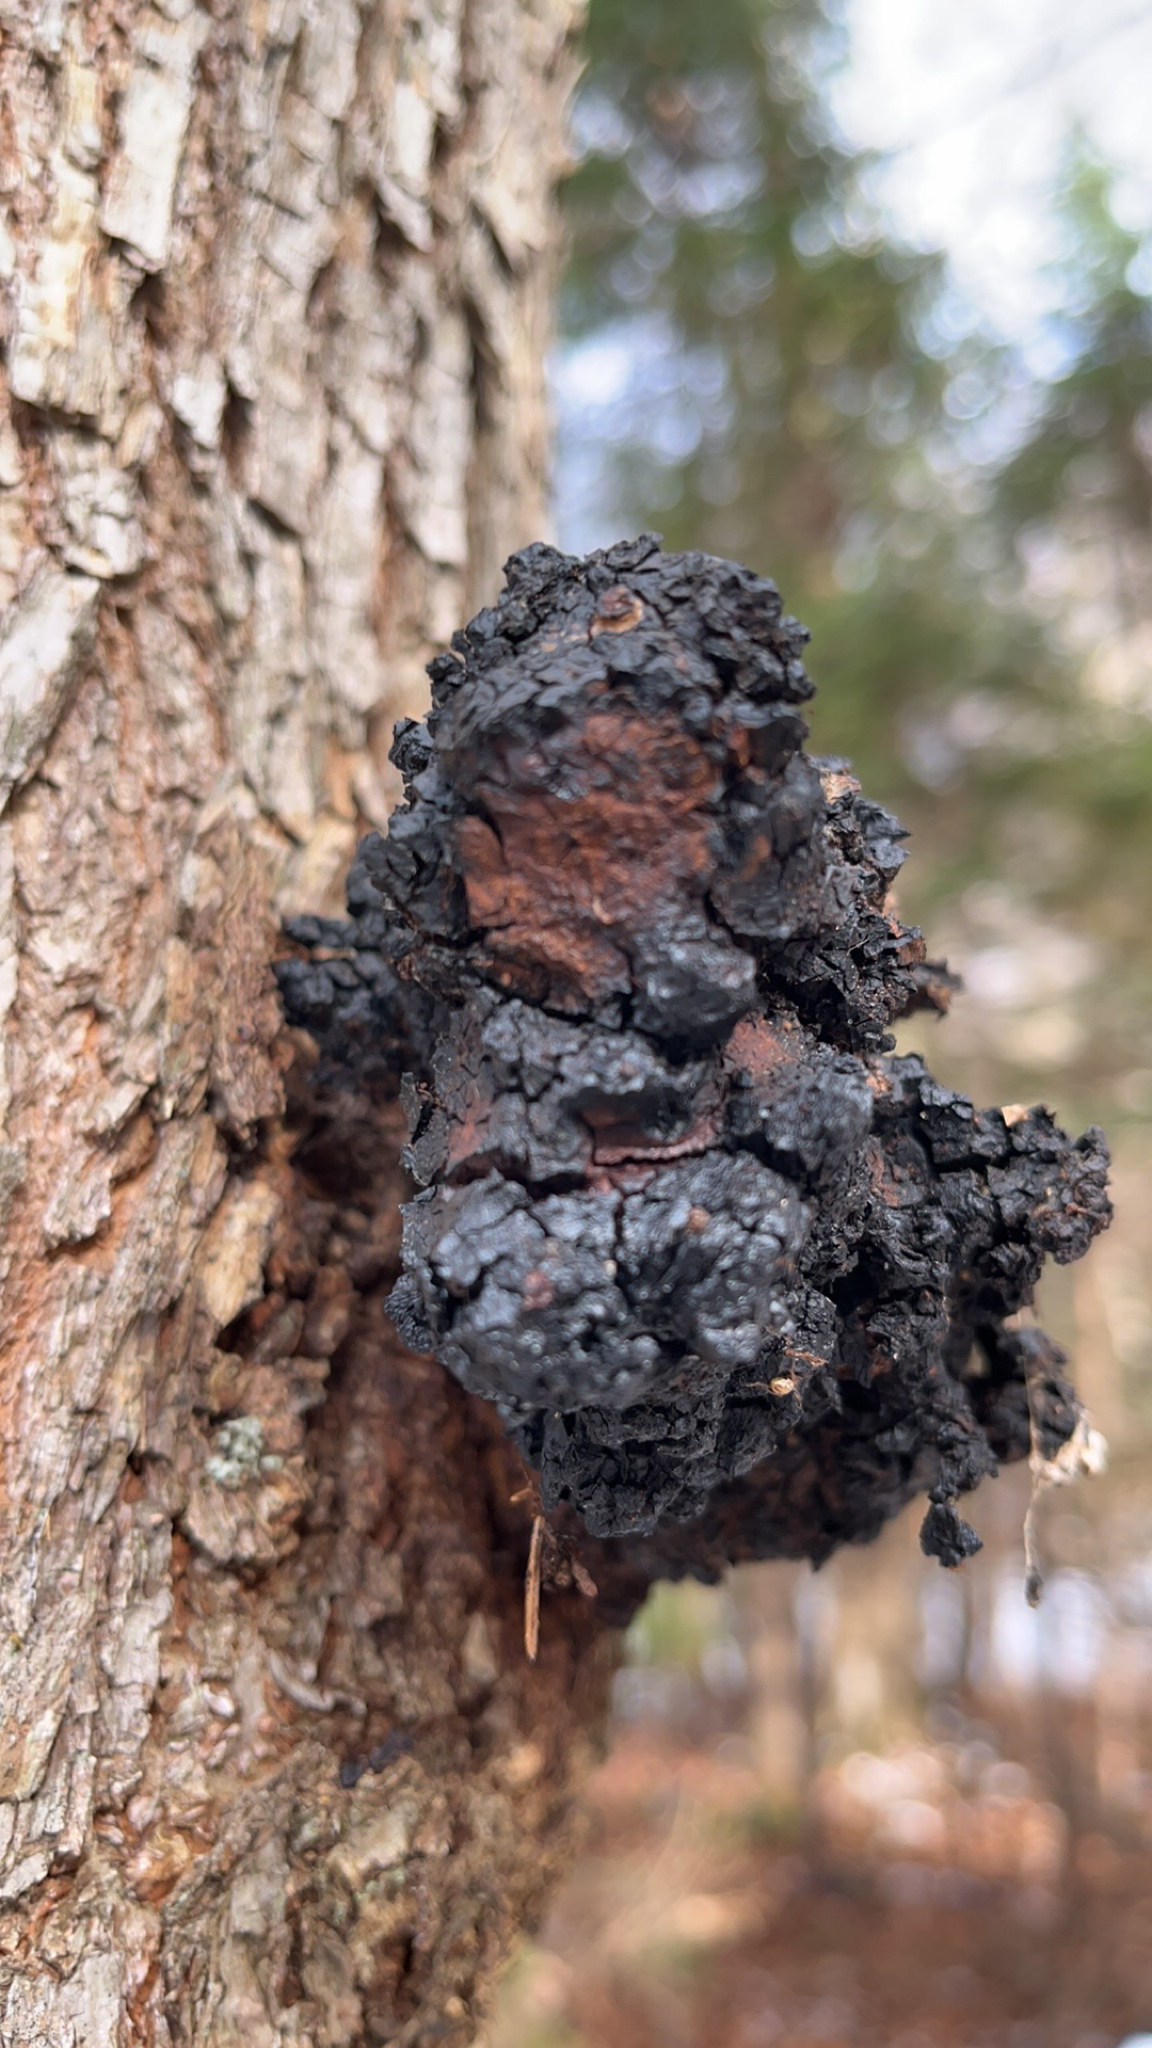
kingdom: Fungi
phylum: Basidiomycota
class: Agaricomycetes
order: Hymenochaetales
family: Hymenochaetaceae
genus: Inonotus
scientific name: Inonotus obliquus
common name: Chaga
